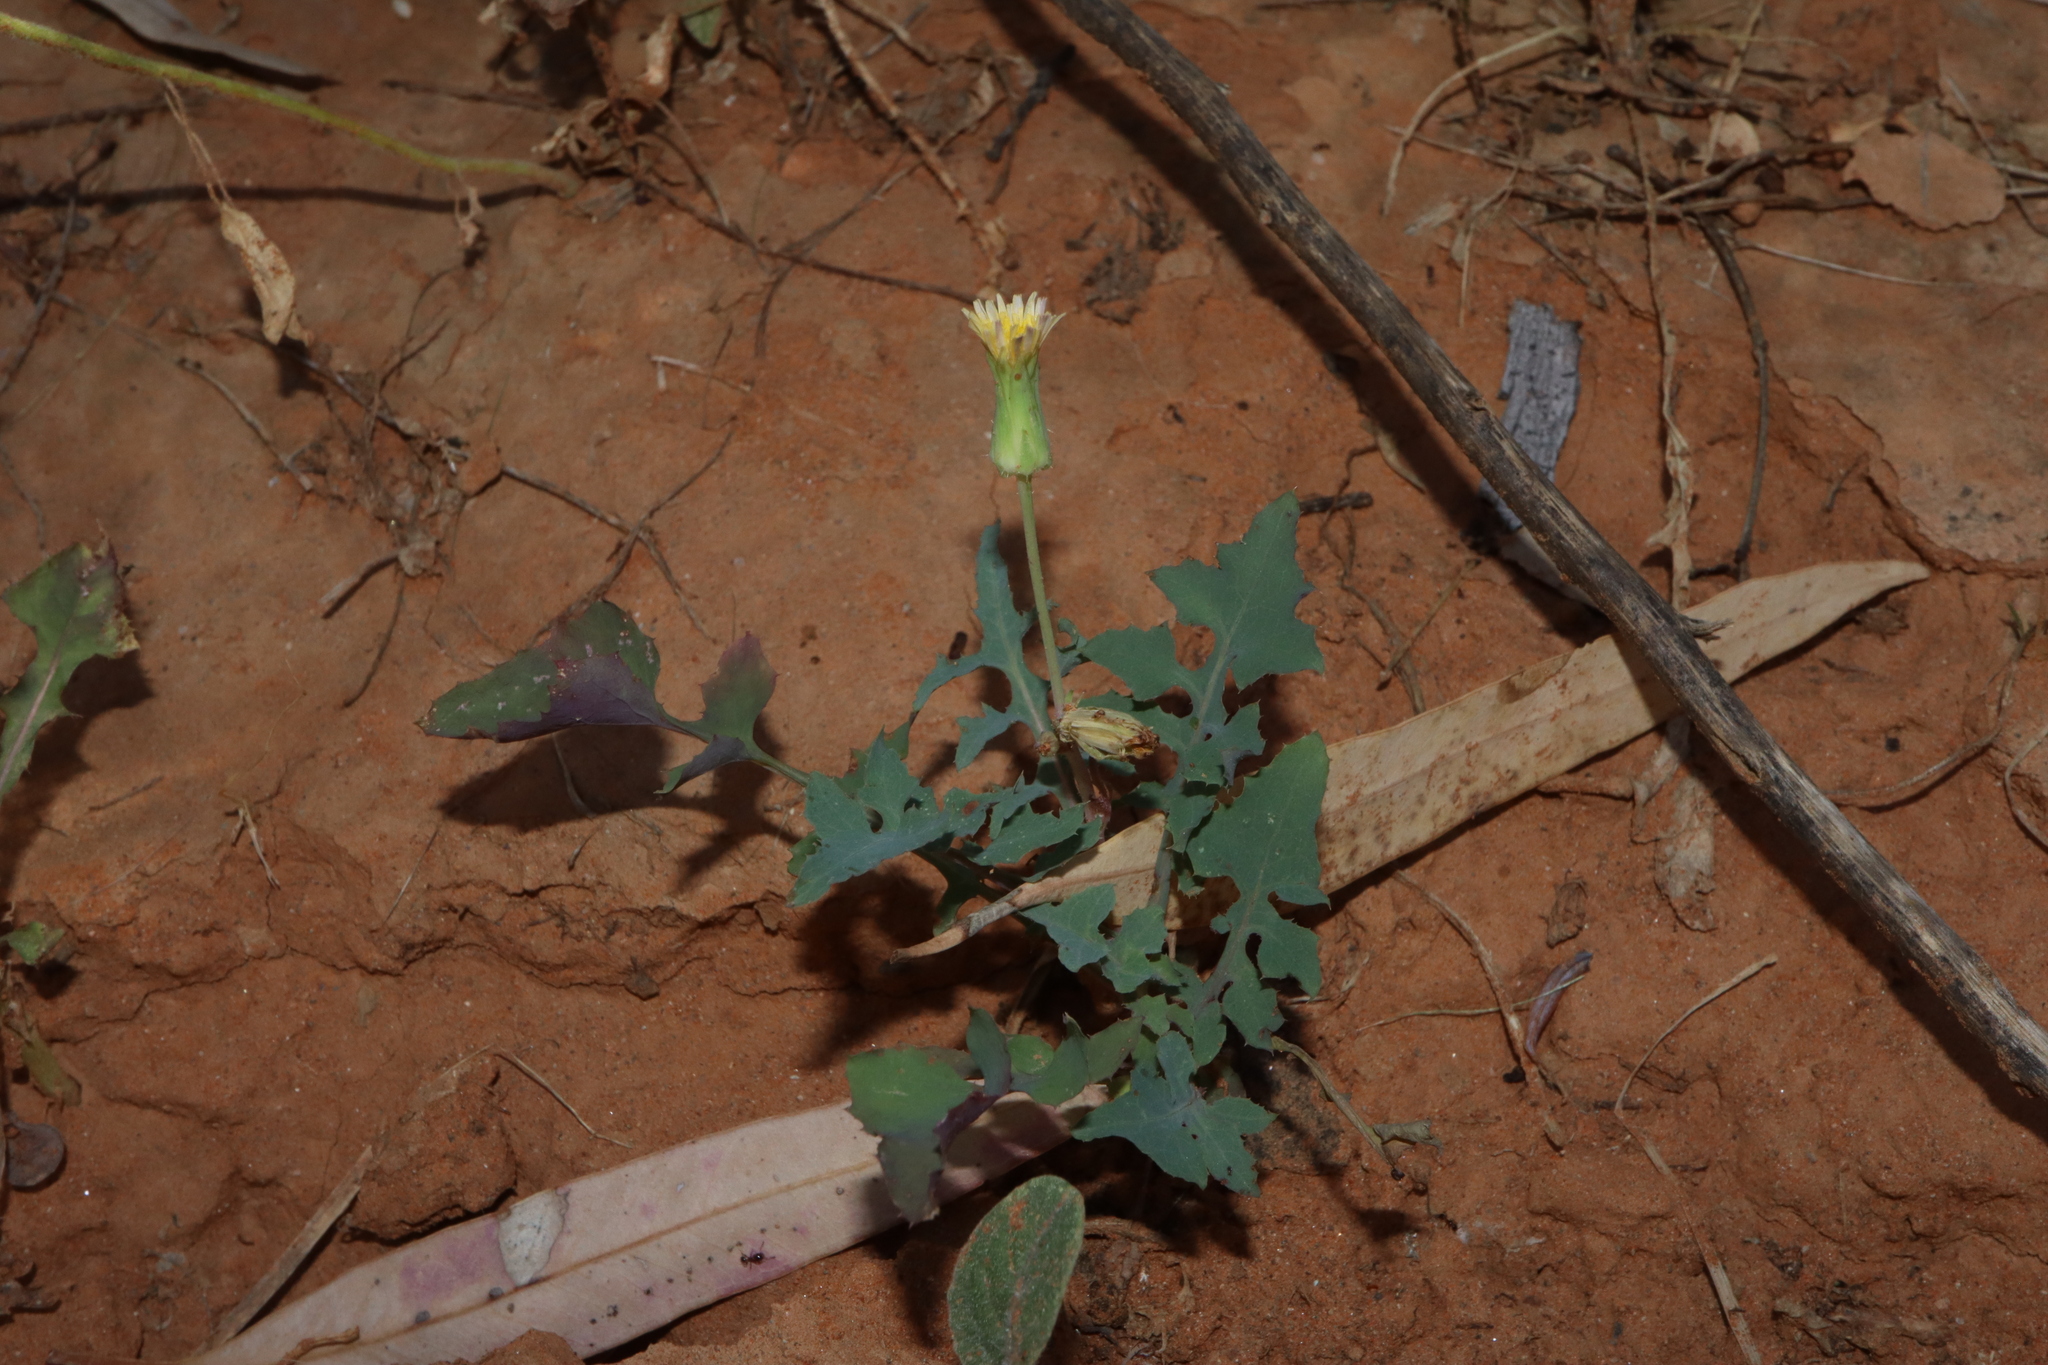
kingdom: Plantae
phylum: Tracheophyta
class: Magnoliopsida
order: Asterales
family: Asteraceae
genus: Sonchus
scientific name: Sonchus oleraceus
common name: Common sowthistle
